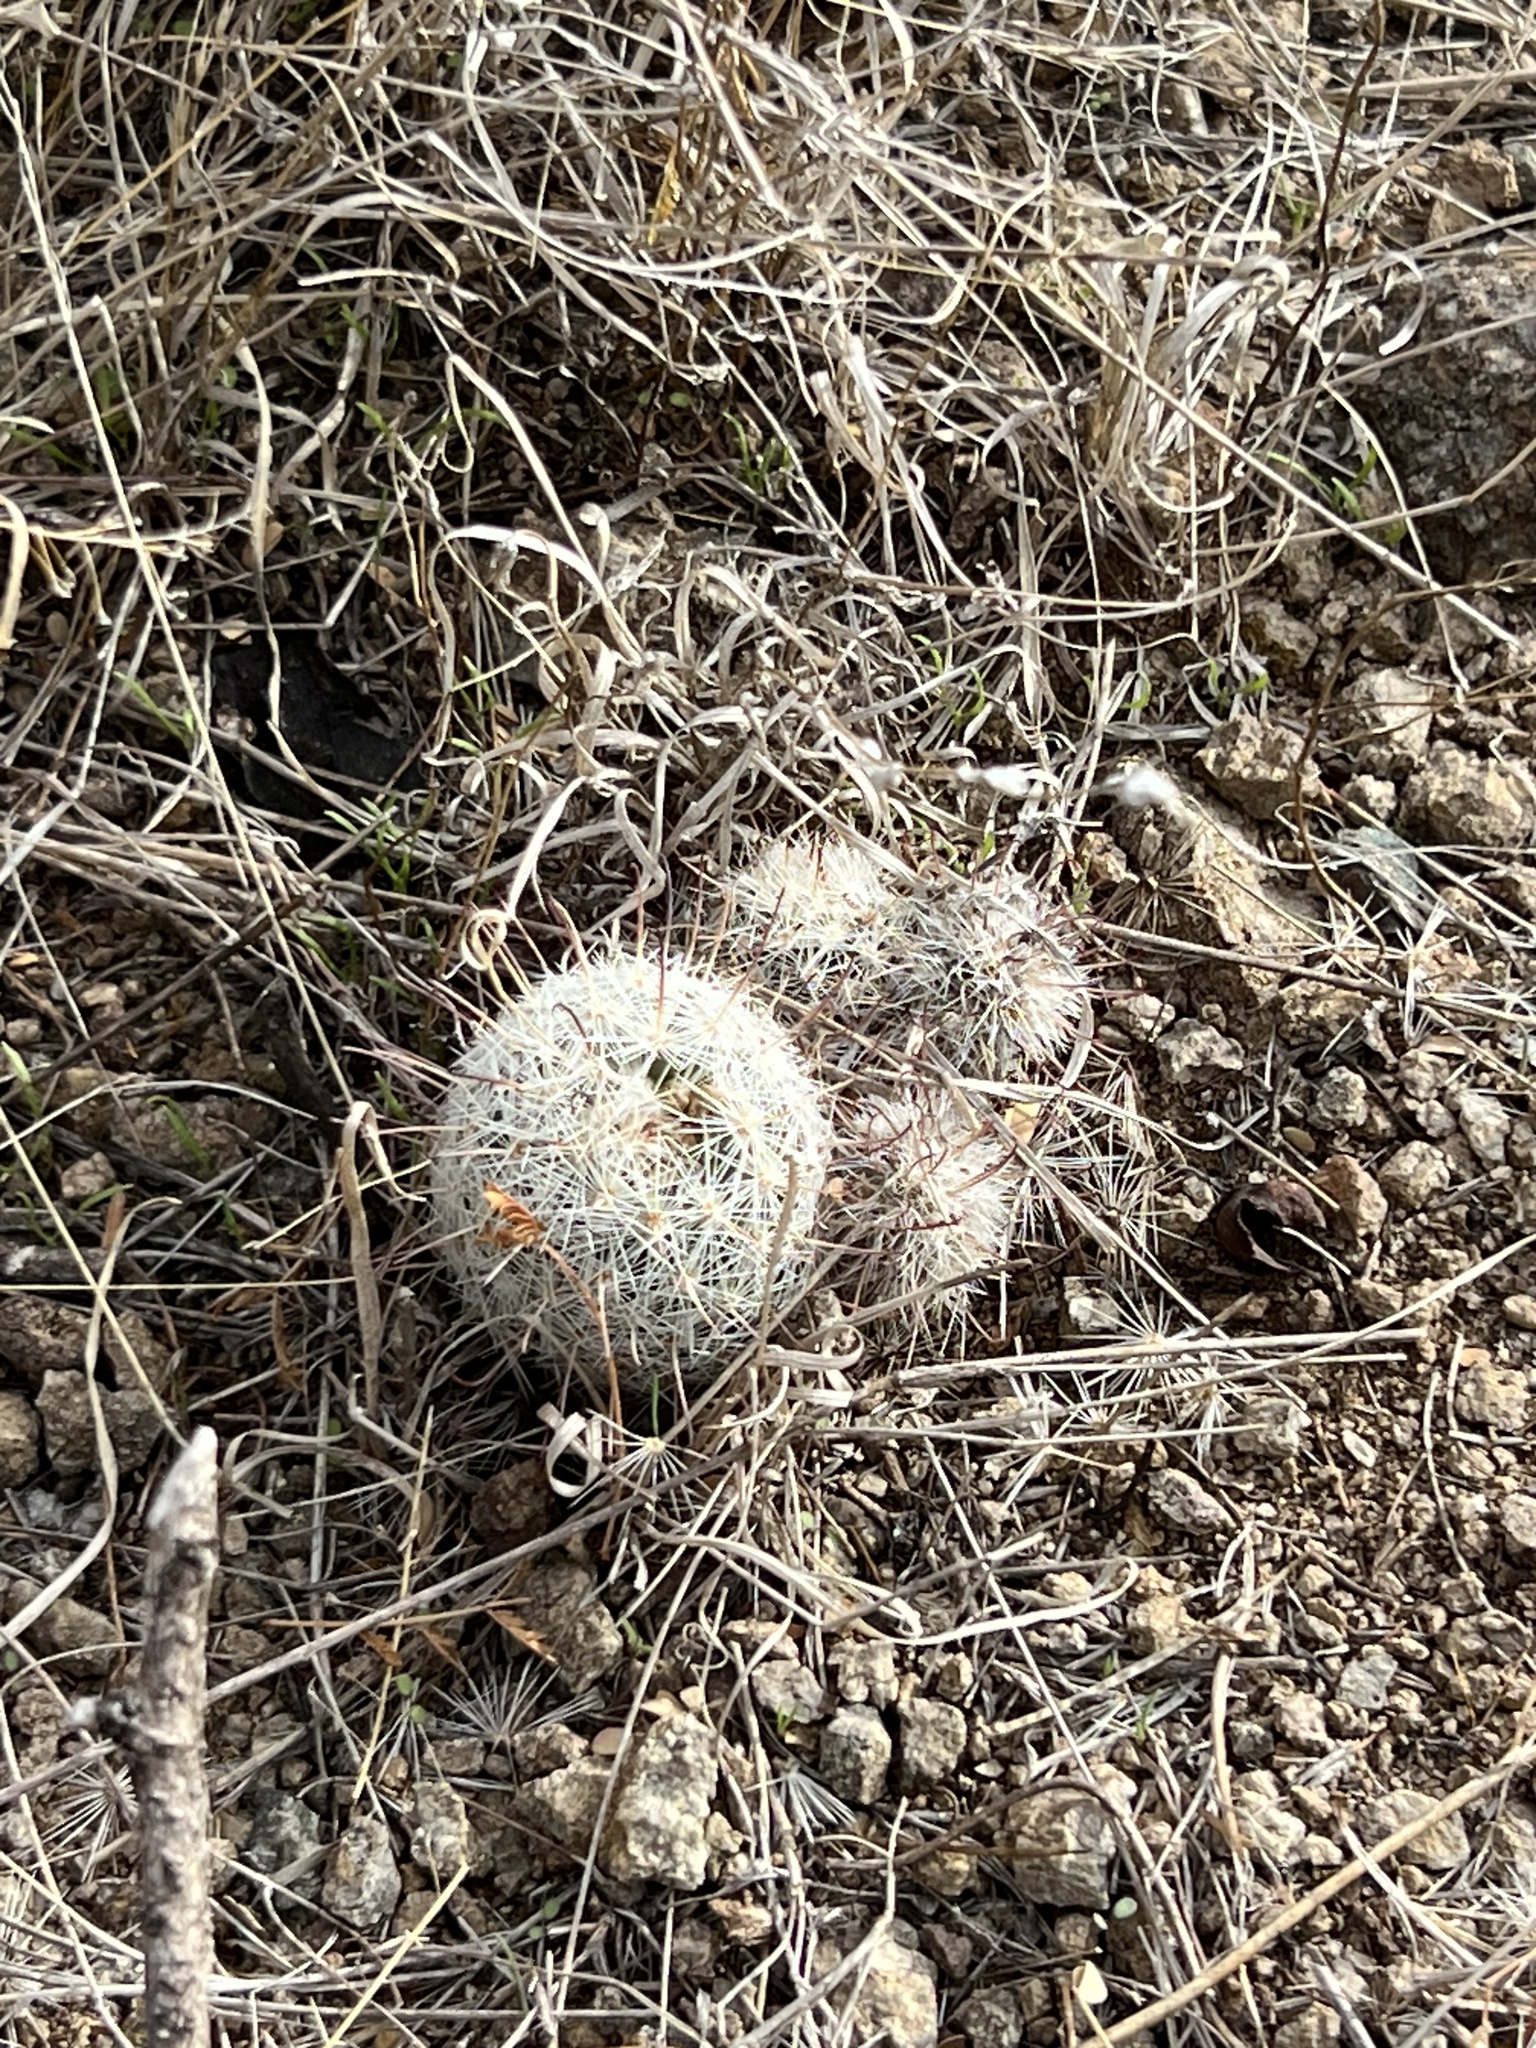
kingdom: Plantae
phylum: Tracheophyta
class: Magnoliopsida
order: Caryophyllales
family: Cactaceae
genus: Cochemiea
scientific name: Cochemiea grahamii
